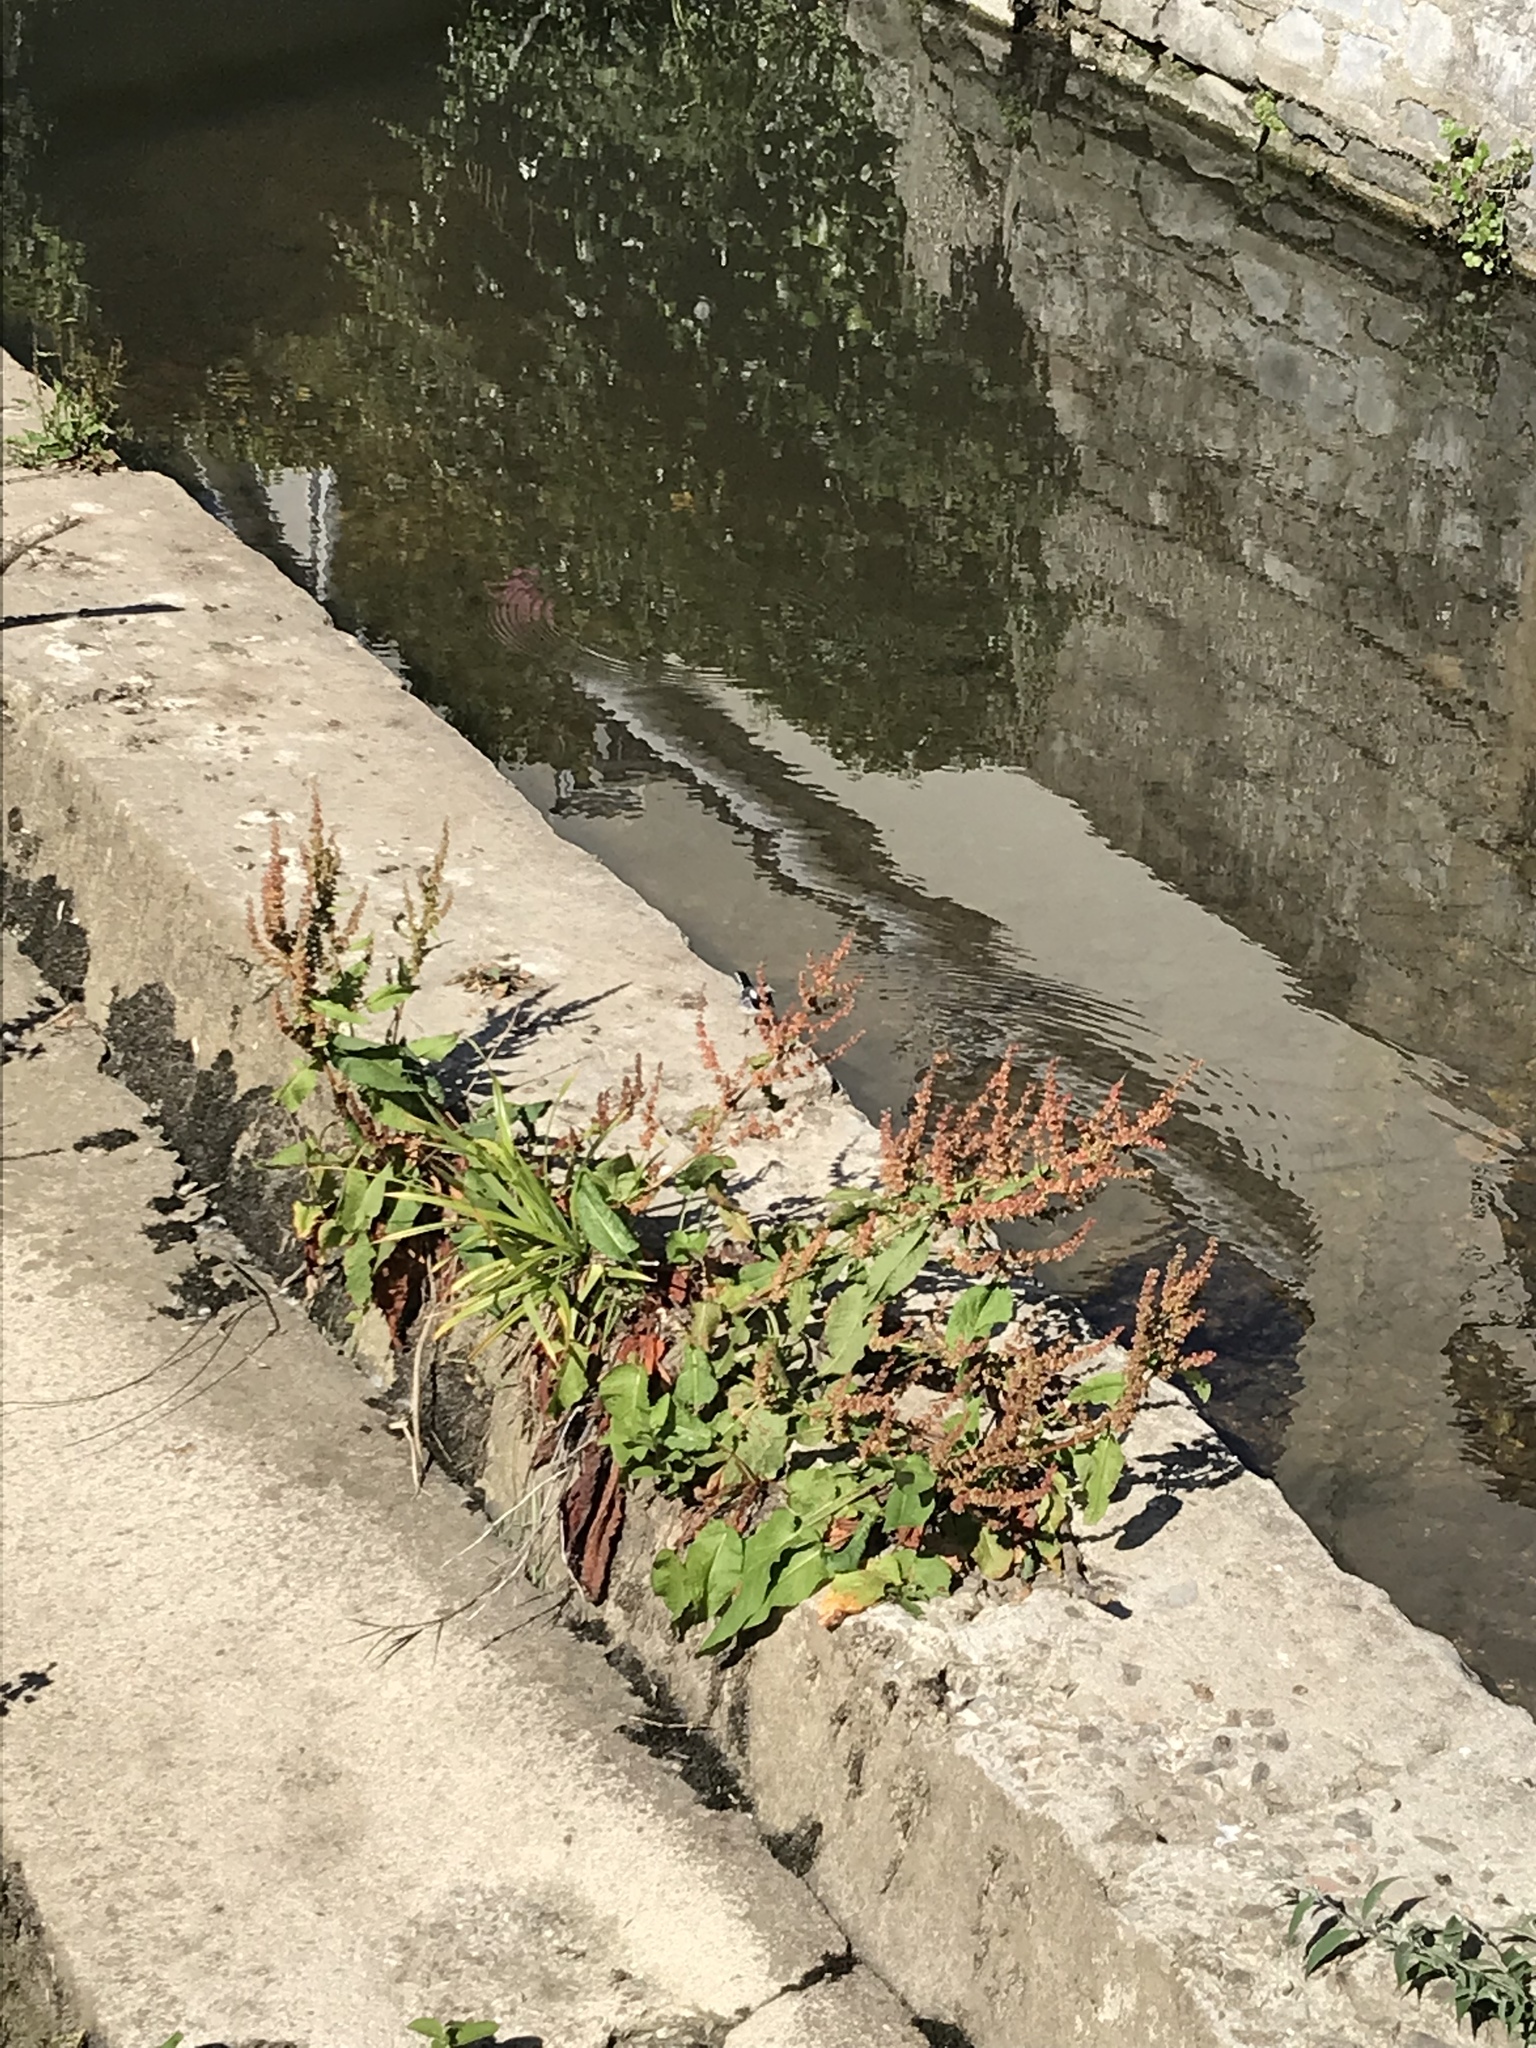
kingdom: Animalia
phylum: Chordata
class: Aves
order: Passeriformes
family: Motacillidae
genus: Motacilla
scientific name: Motacilla alba
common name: White wagtail
